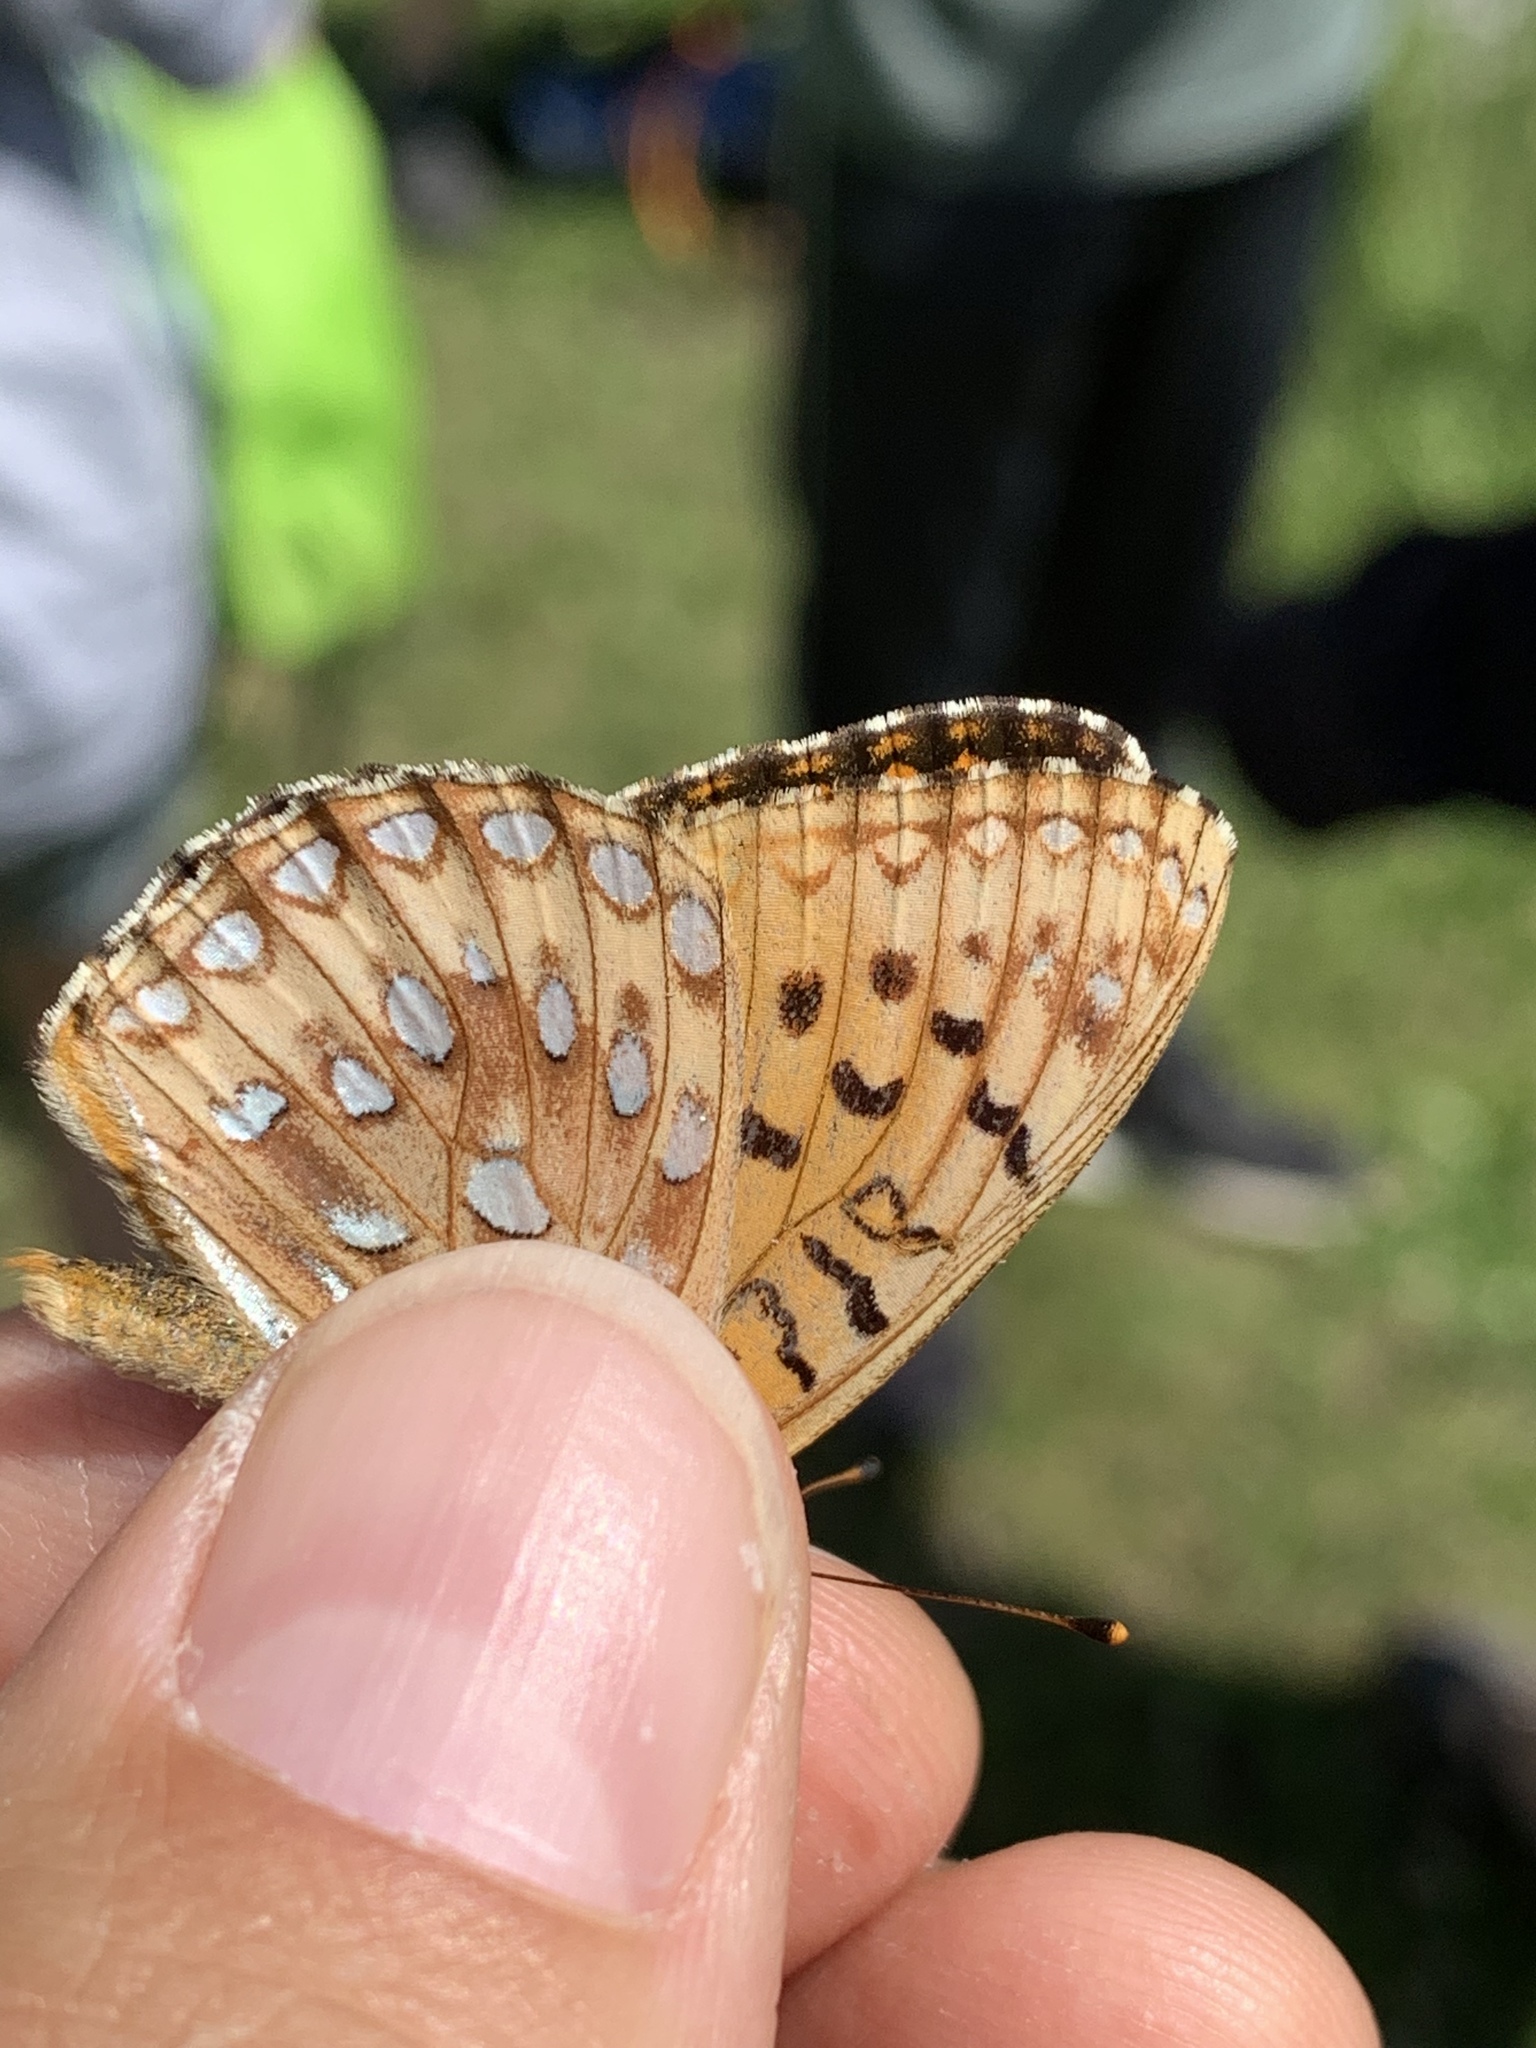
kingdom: Animalia
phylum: Arthropoda
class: Insecta
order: Lepidoptera
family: Nymphalidae
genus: Speyeria
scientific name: Speyeria atlantis
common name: Atlantis fritillary
